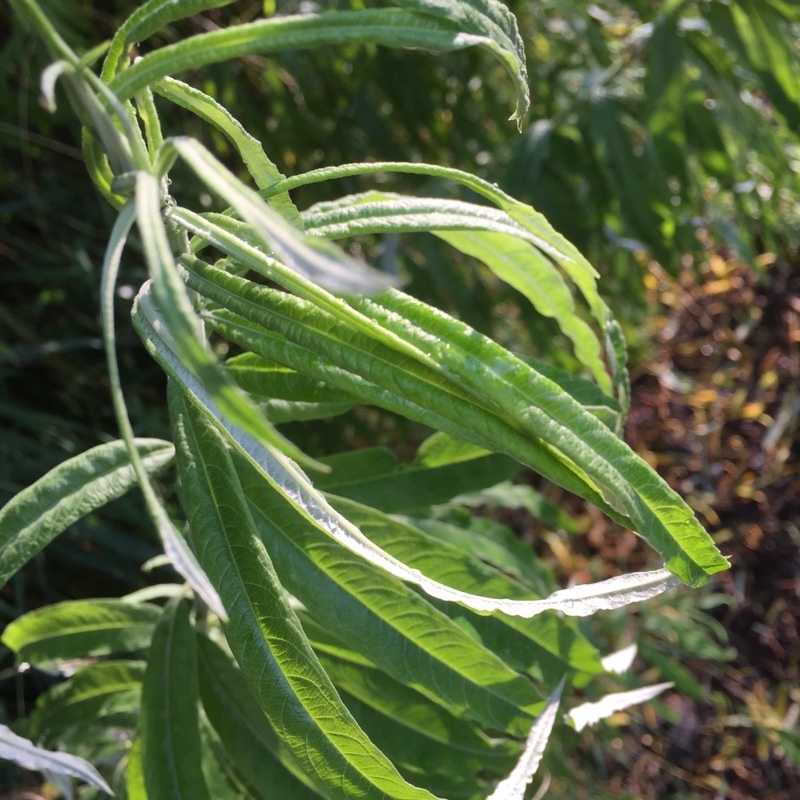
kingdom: Plantae
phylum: Tracheophyta
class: Magnoliopsida
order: Malpighiales
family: Salicaceae
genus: Salix
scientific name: Salix viminalis
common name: Osier
